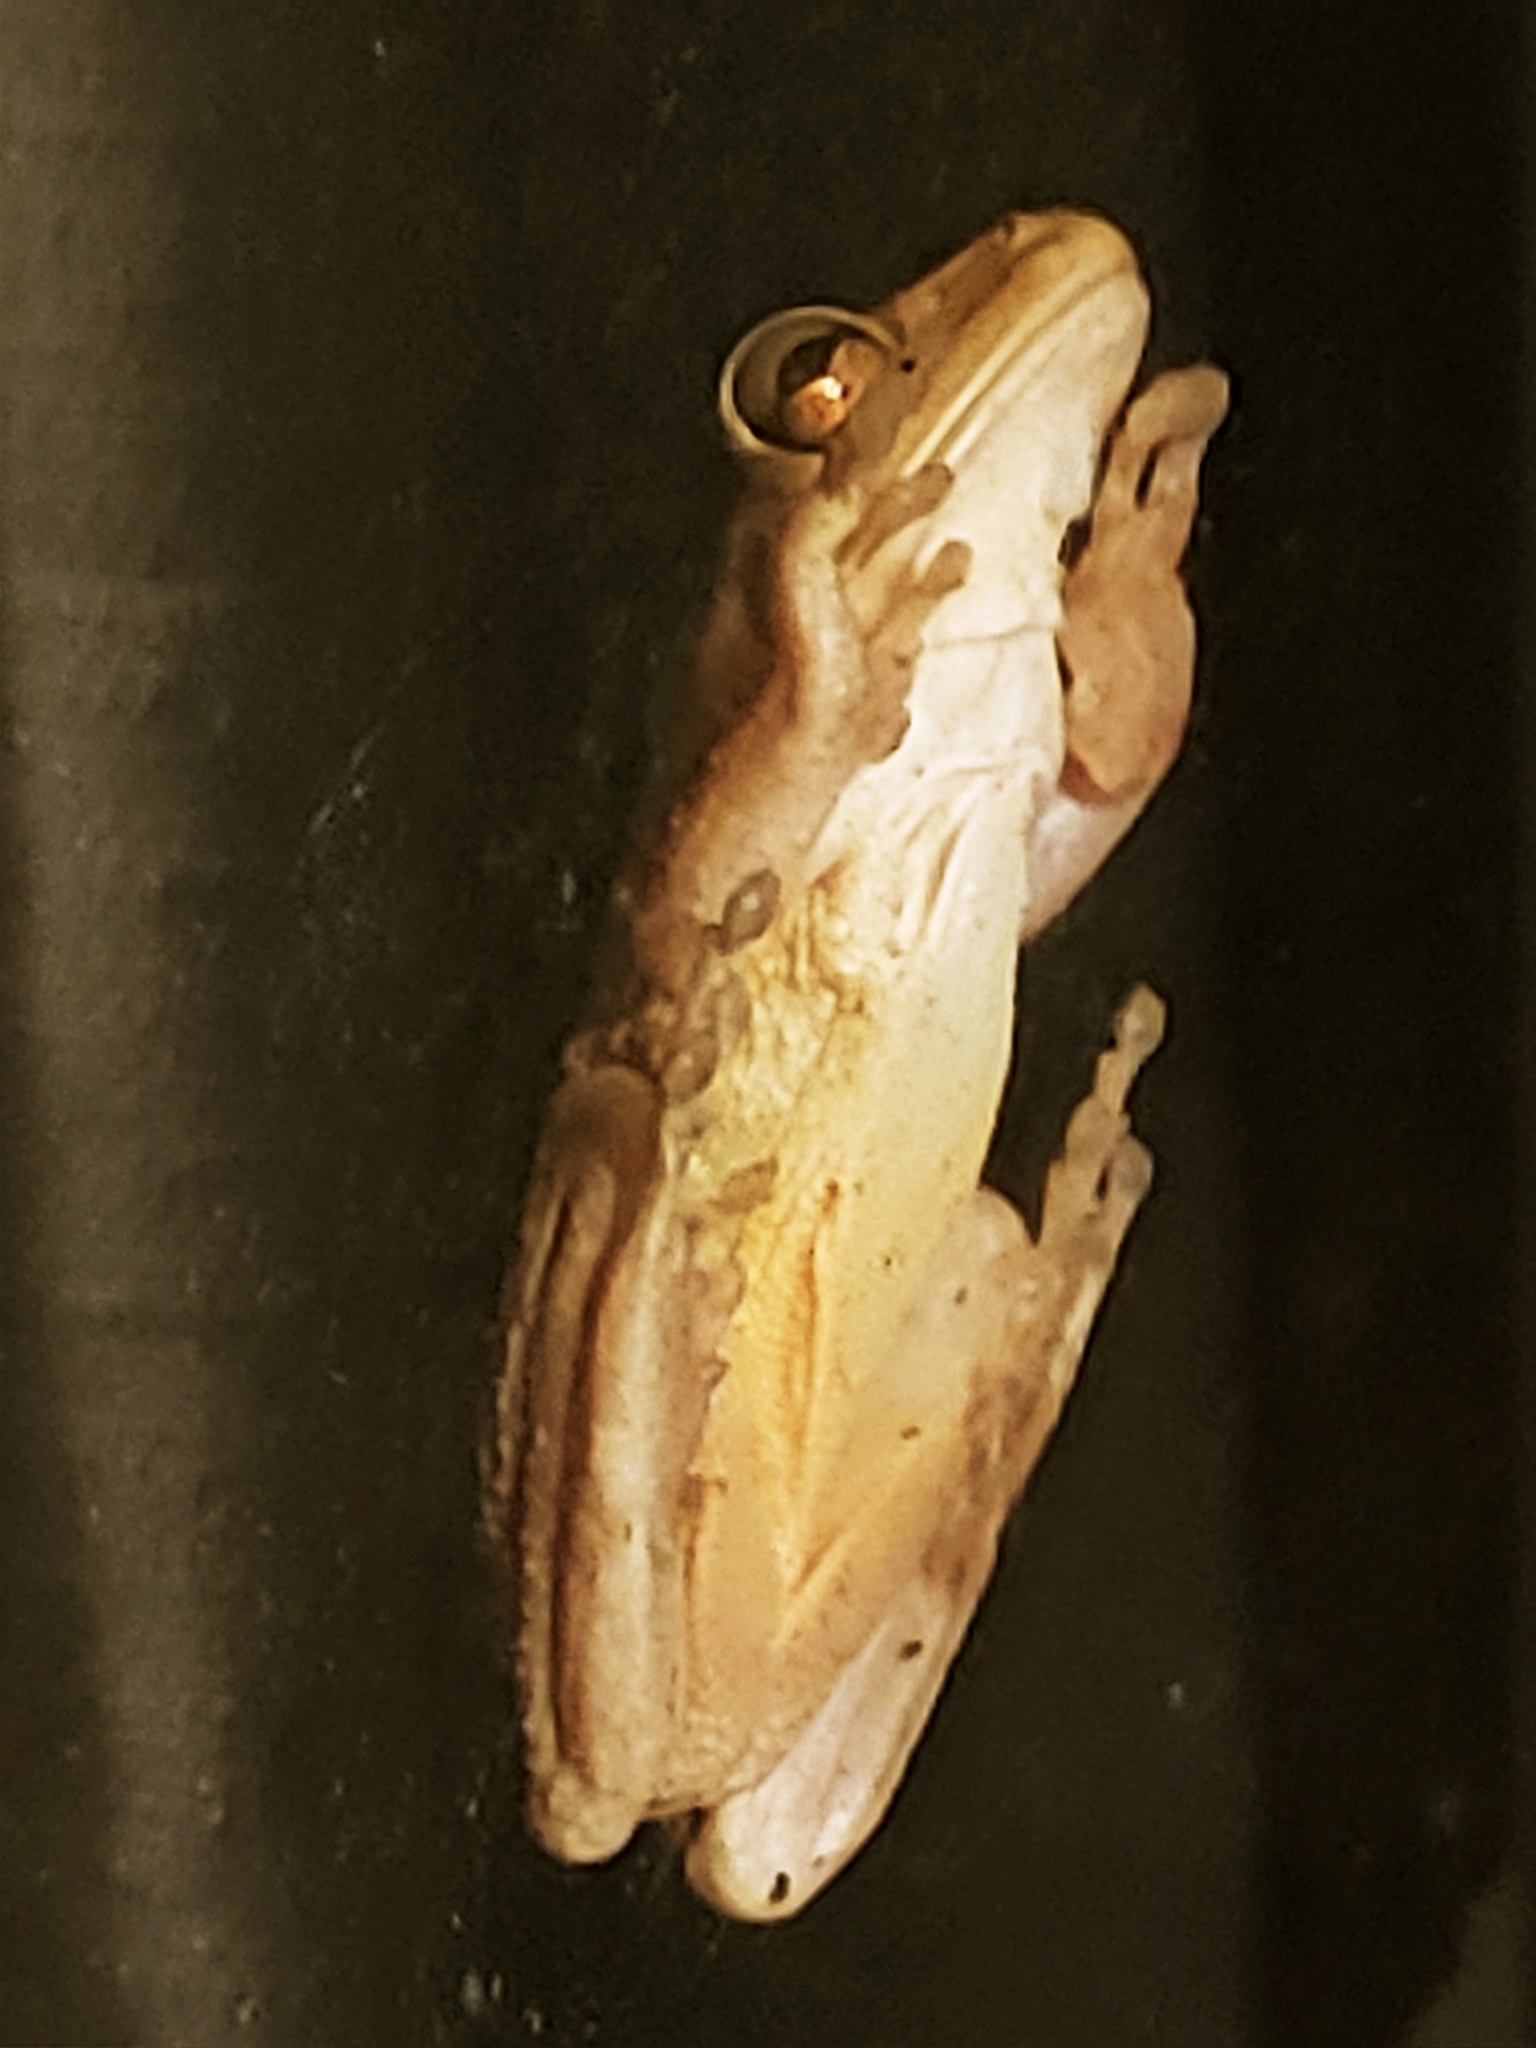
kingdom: Animalia
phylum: Chordata
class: Amphibia
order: Anura
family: Hylidae
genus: Osteopilus
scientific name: Osteopilus septentrionalis
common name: Cuban treefrog
